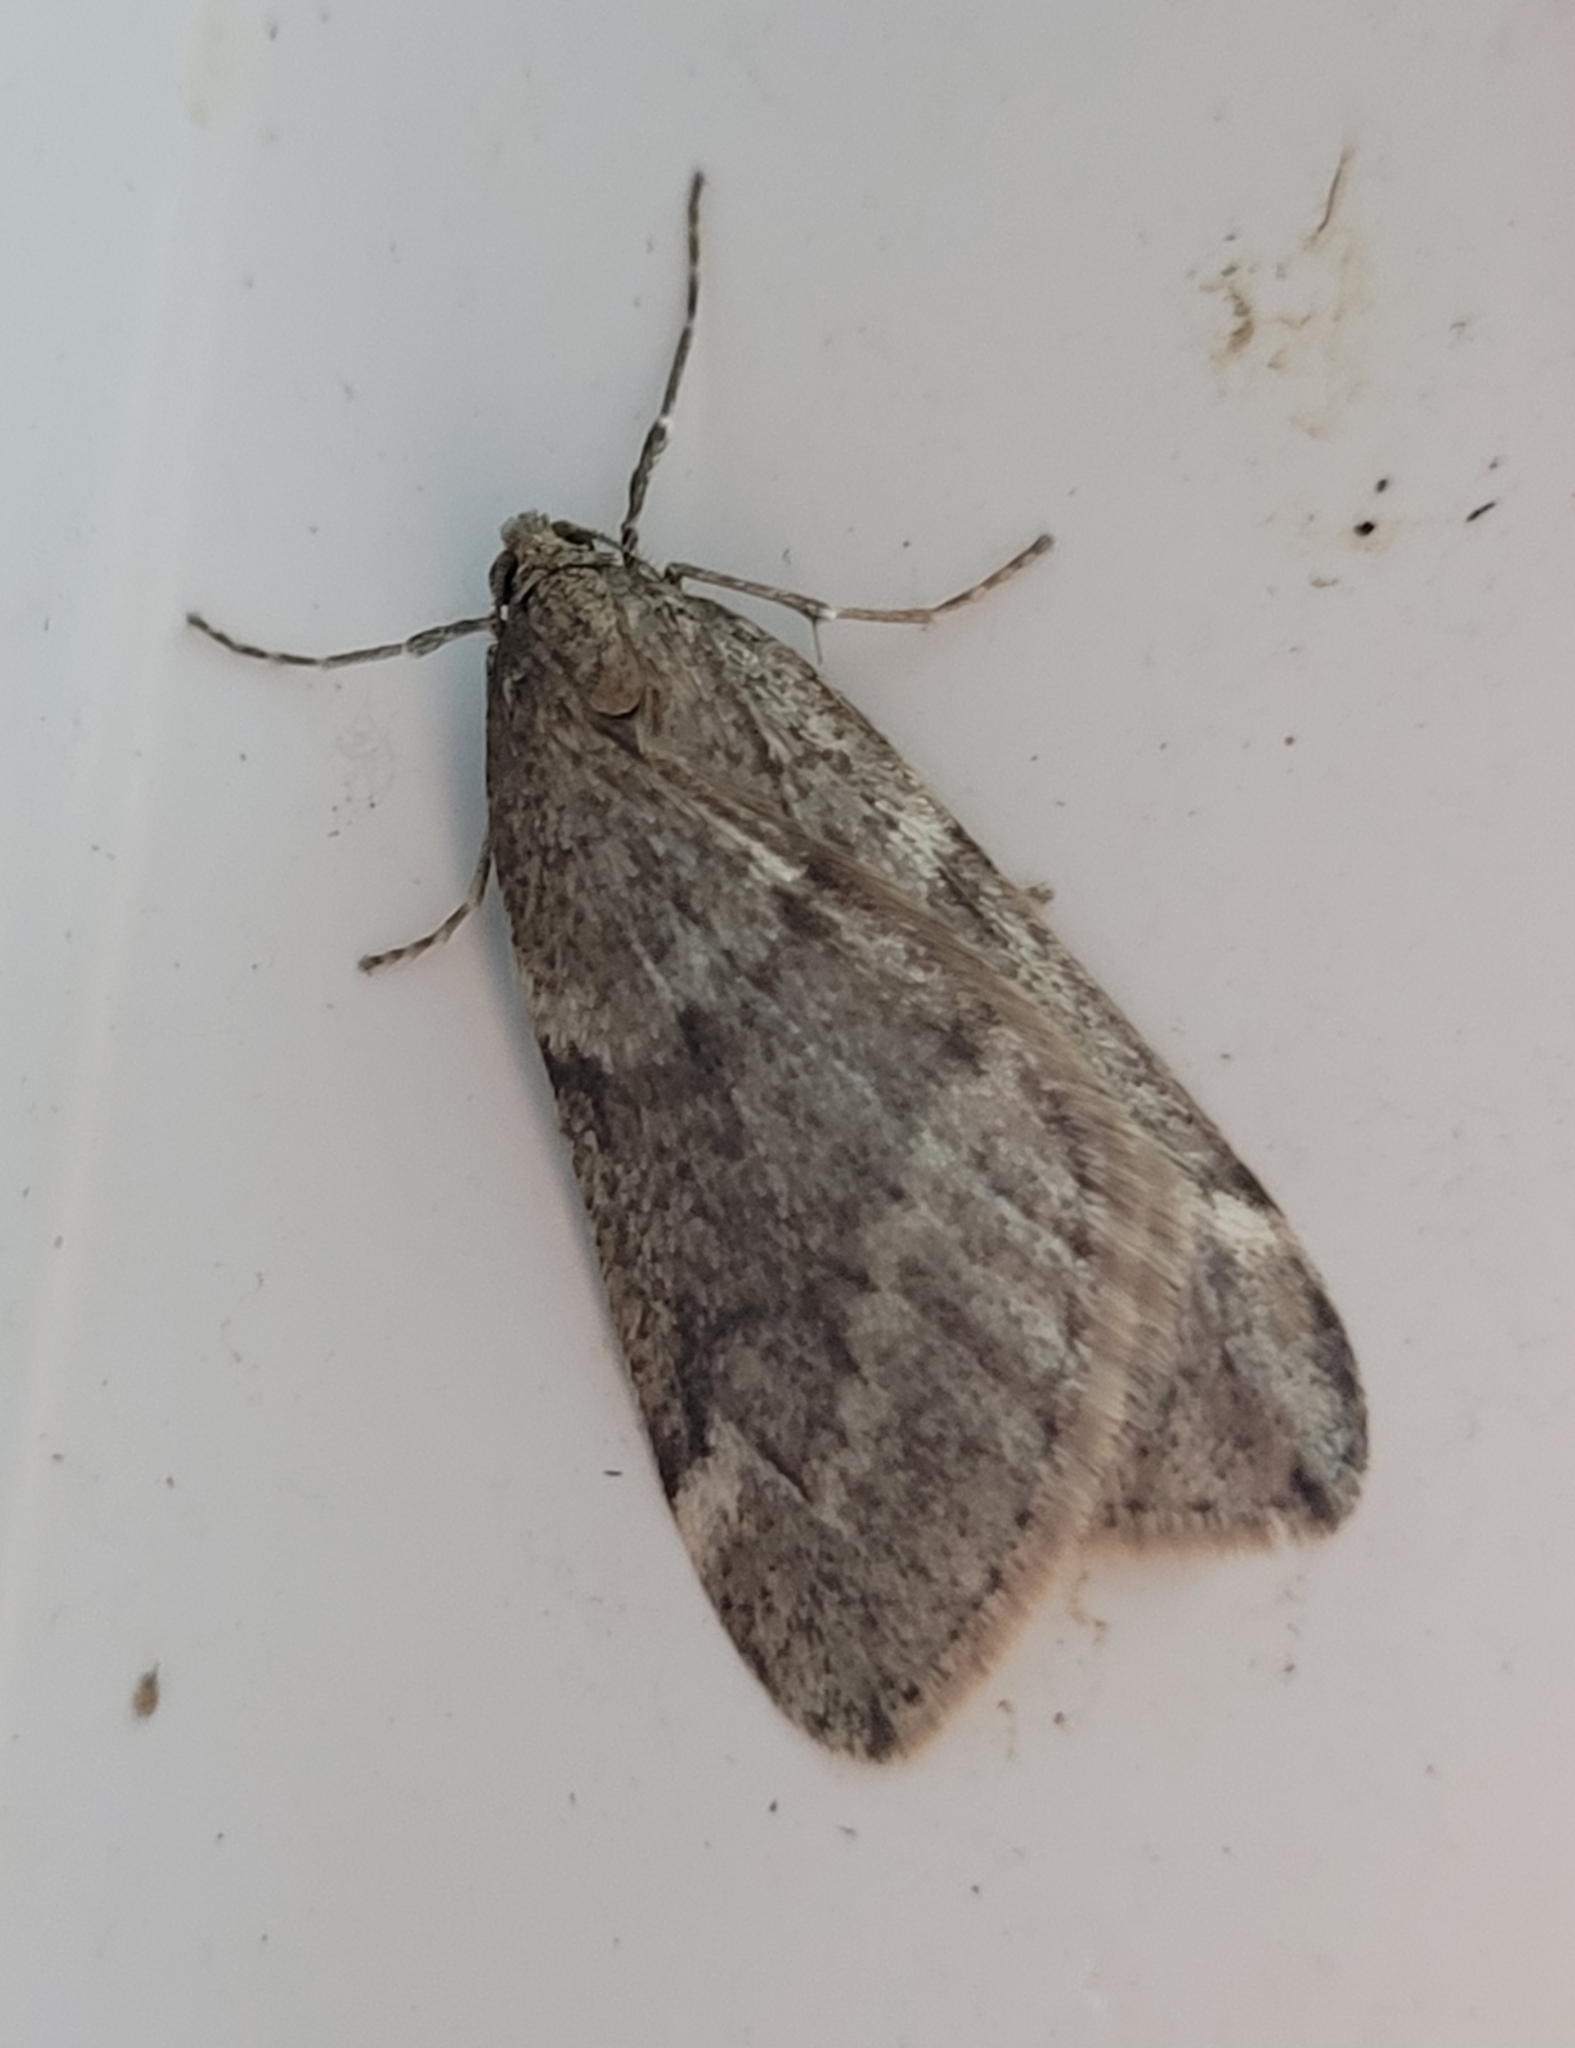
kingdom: Animalia
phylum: Arthropoda
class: Insecta
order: Lepidoptera
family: Geometridae
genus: Alsophila
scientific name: Alsophila pometaria
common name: Fall cankerworm
